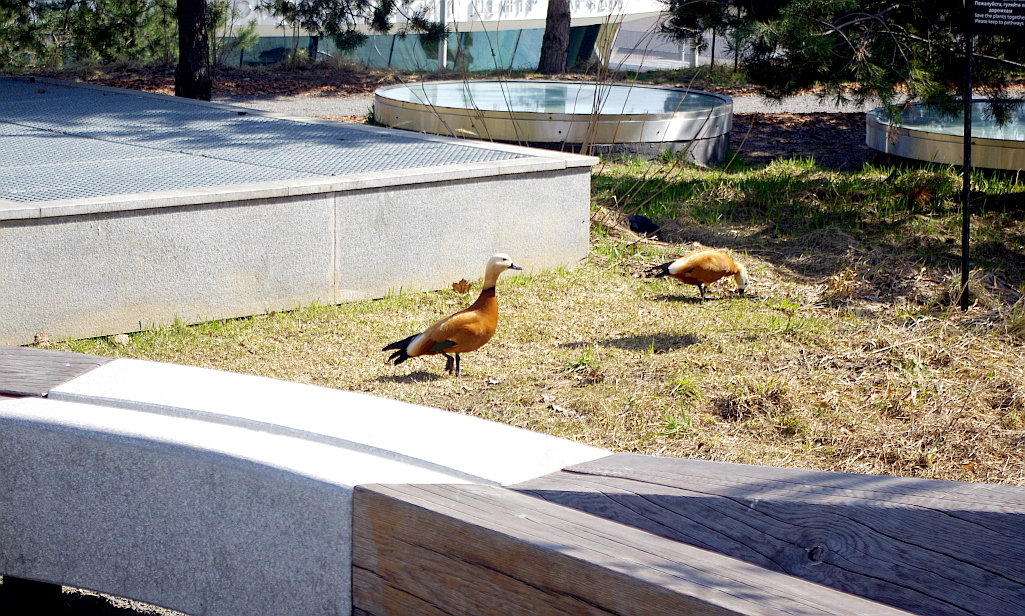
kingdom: Animalia
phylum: Chordata
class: Aves
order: Anseriformes
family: Anatidae
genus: Tadorna
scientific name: Tadorna ferruginea
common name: Ruddy shelduck
